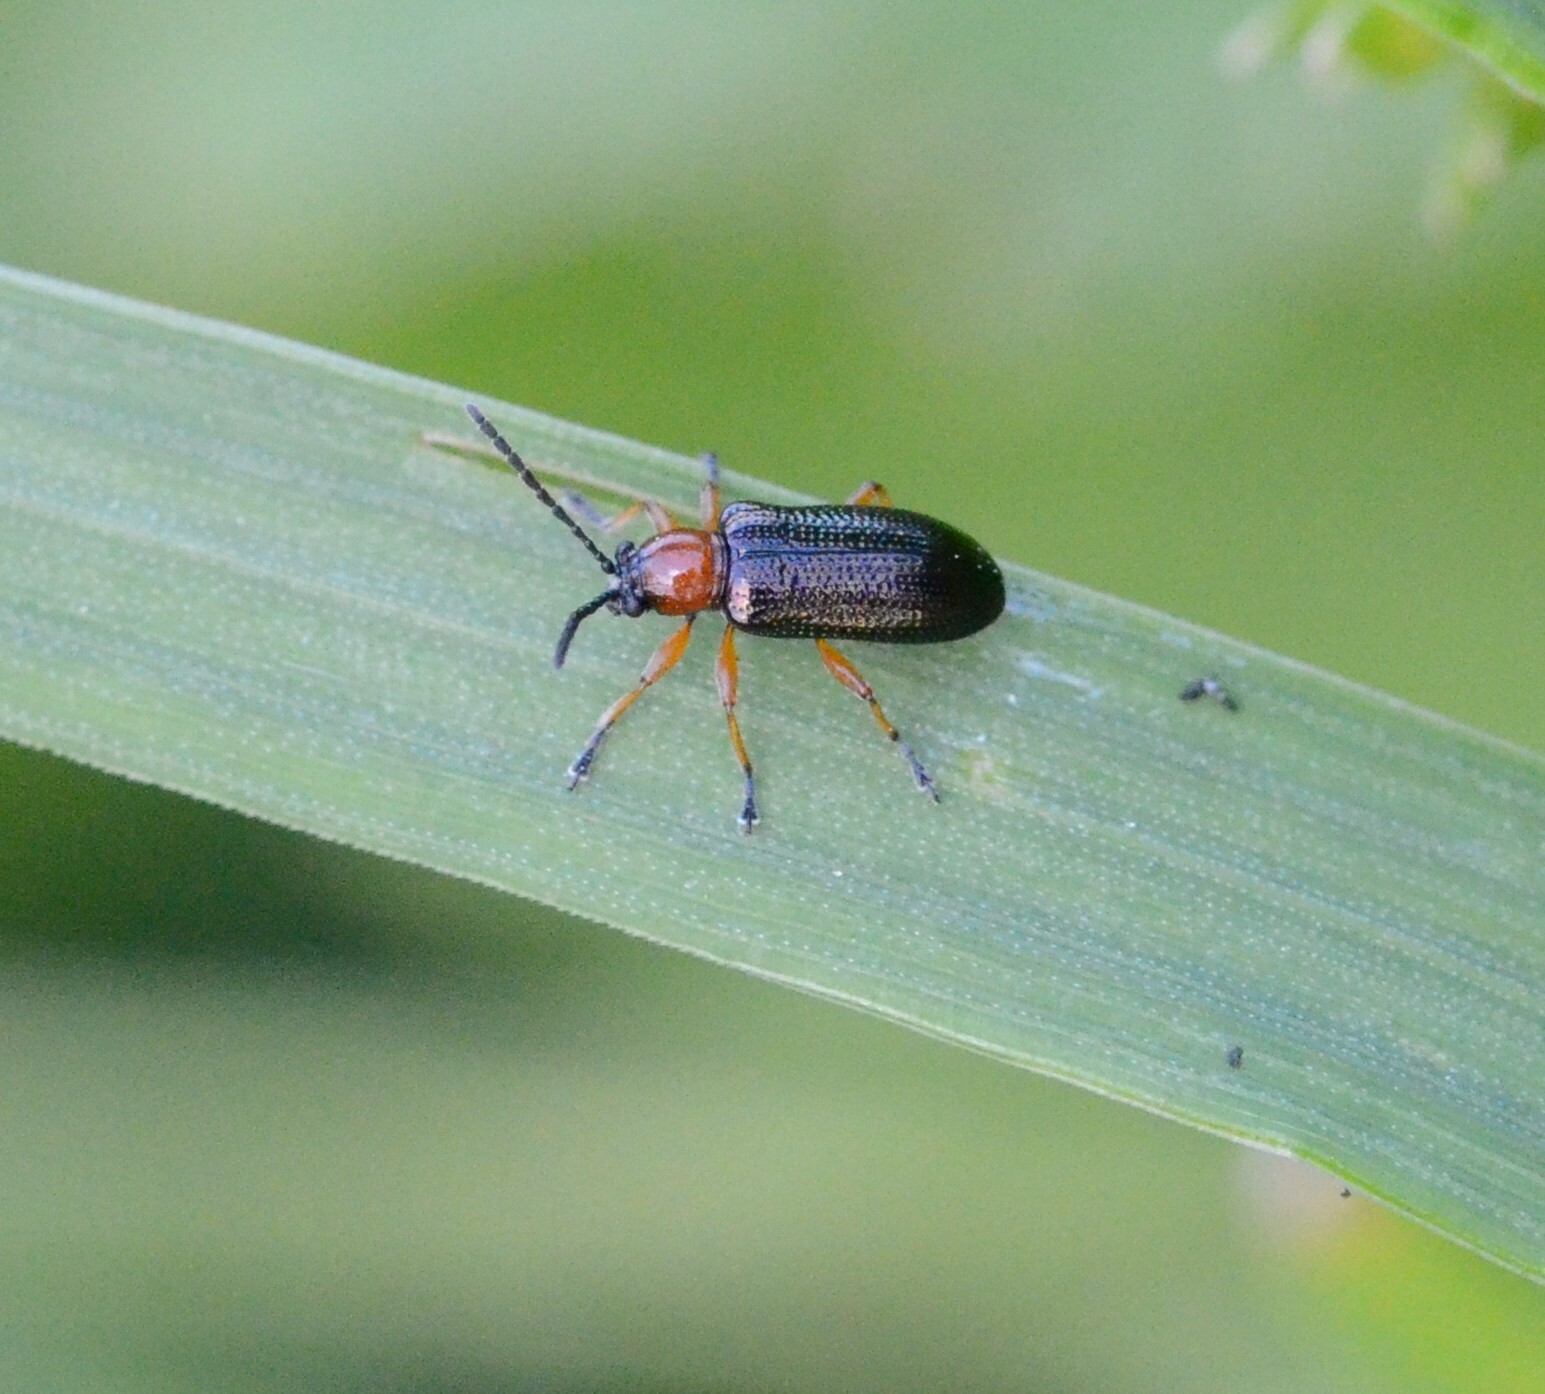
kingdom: Animalia
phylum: Arthropoda
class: Insecta
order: Coleoptera
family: Chrysomelidae
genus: Oulema
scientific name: Oulema
